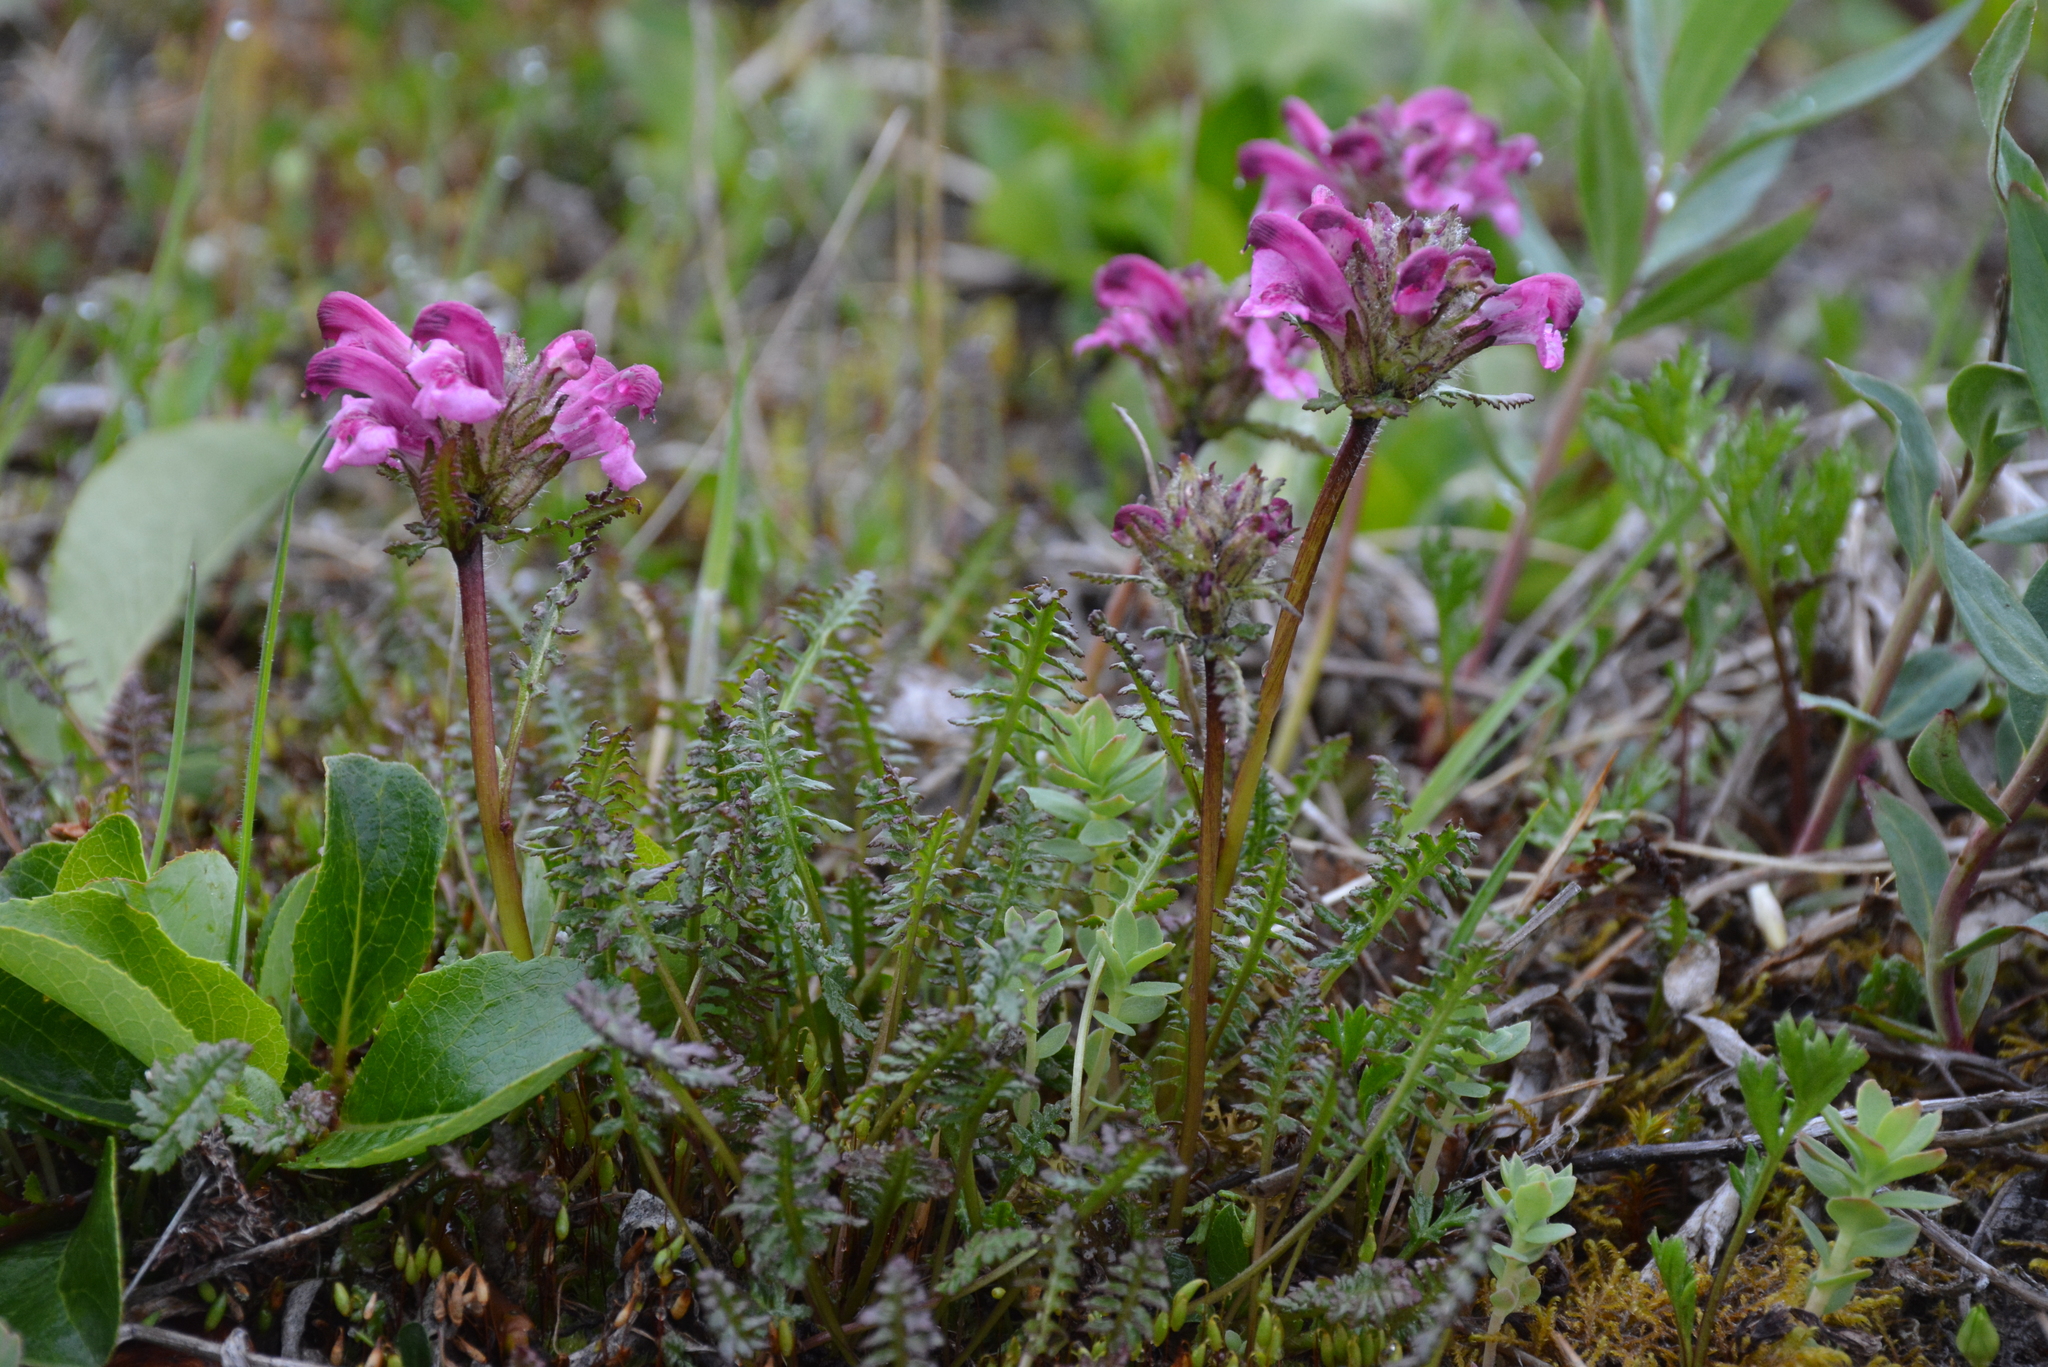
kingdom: Plantae
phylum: Tracheophyta
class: Magnoliopsida
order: Lamiales
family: Orobanchaceae
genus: Pedicularis
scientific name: Pedicularis sudetica
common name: Sudeten lousewort
